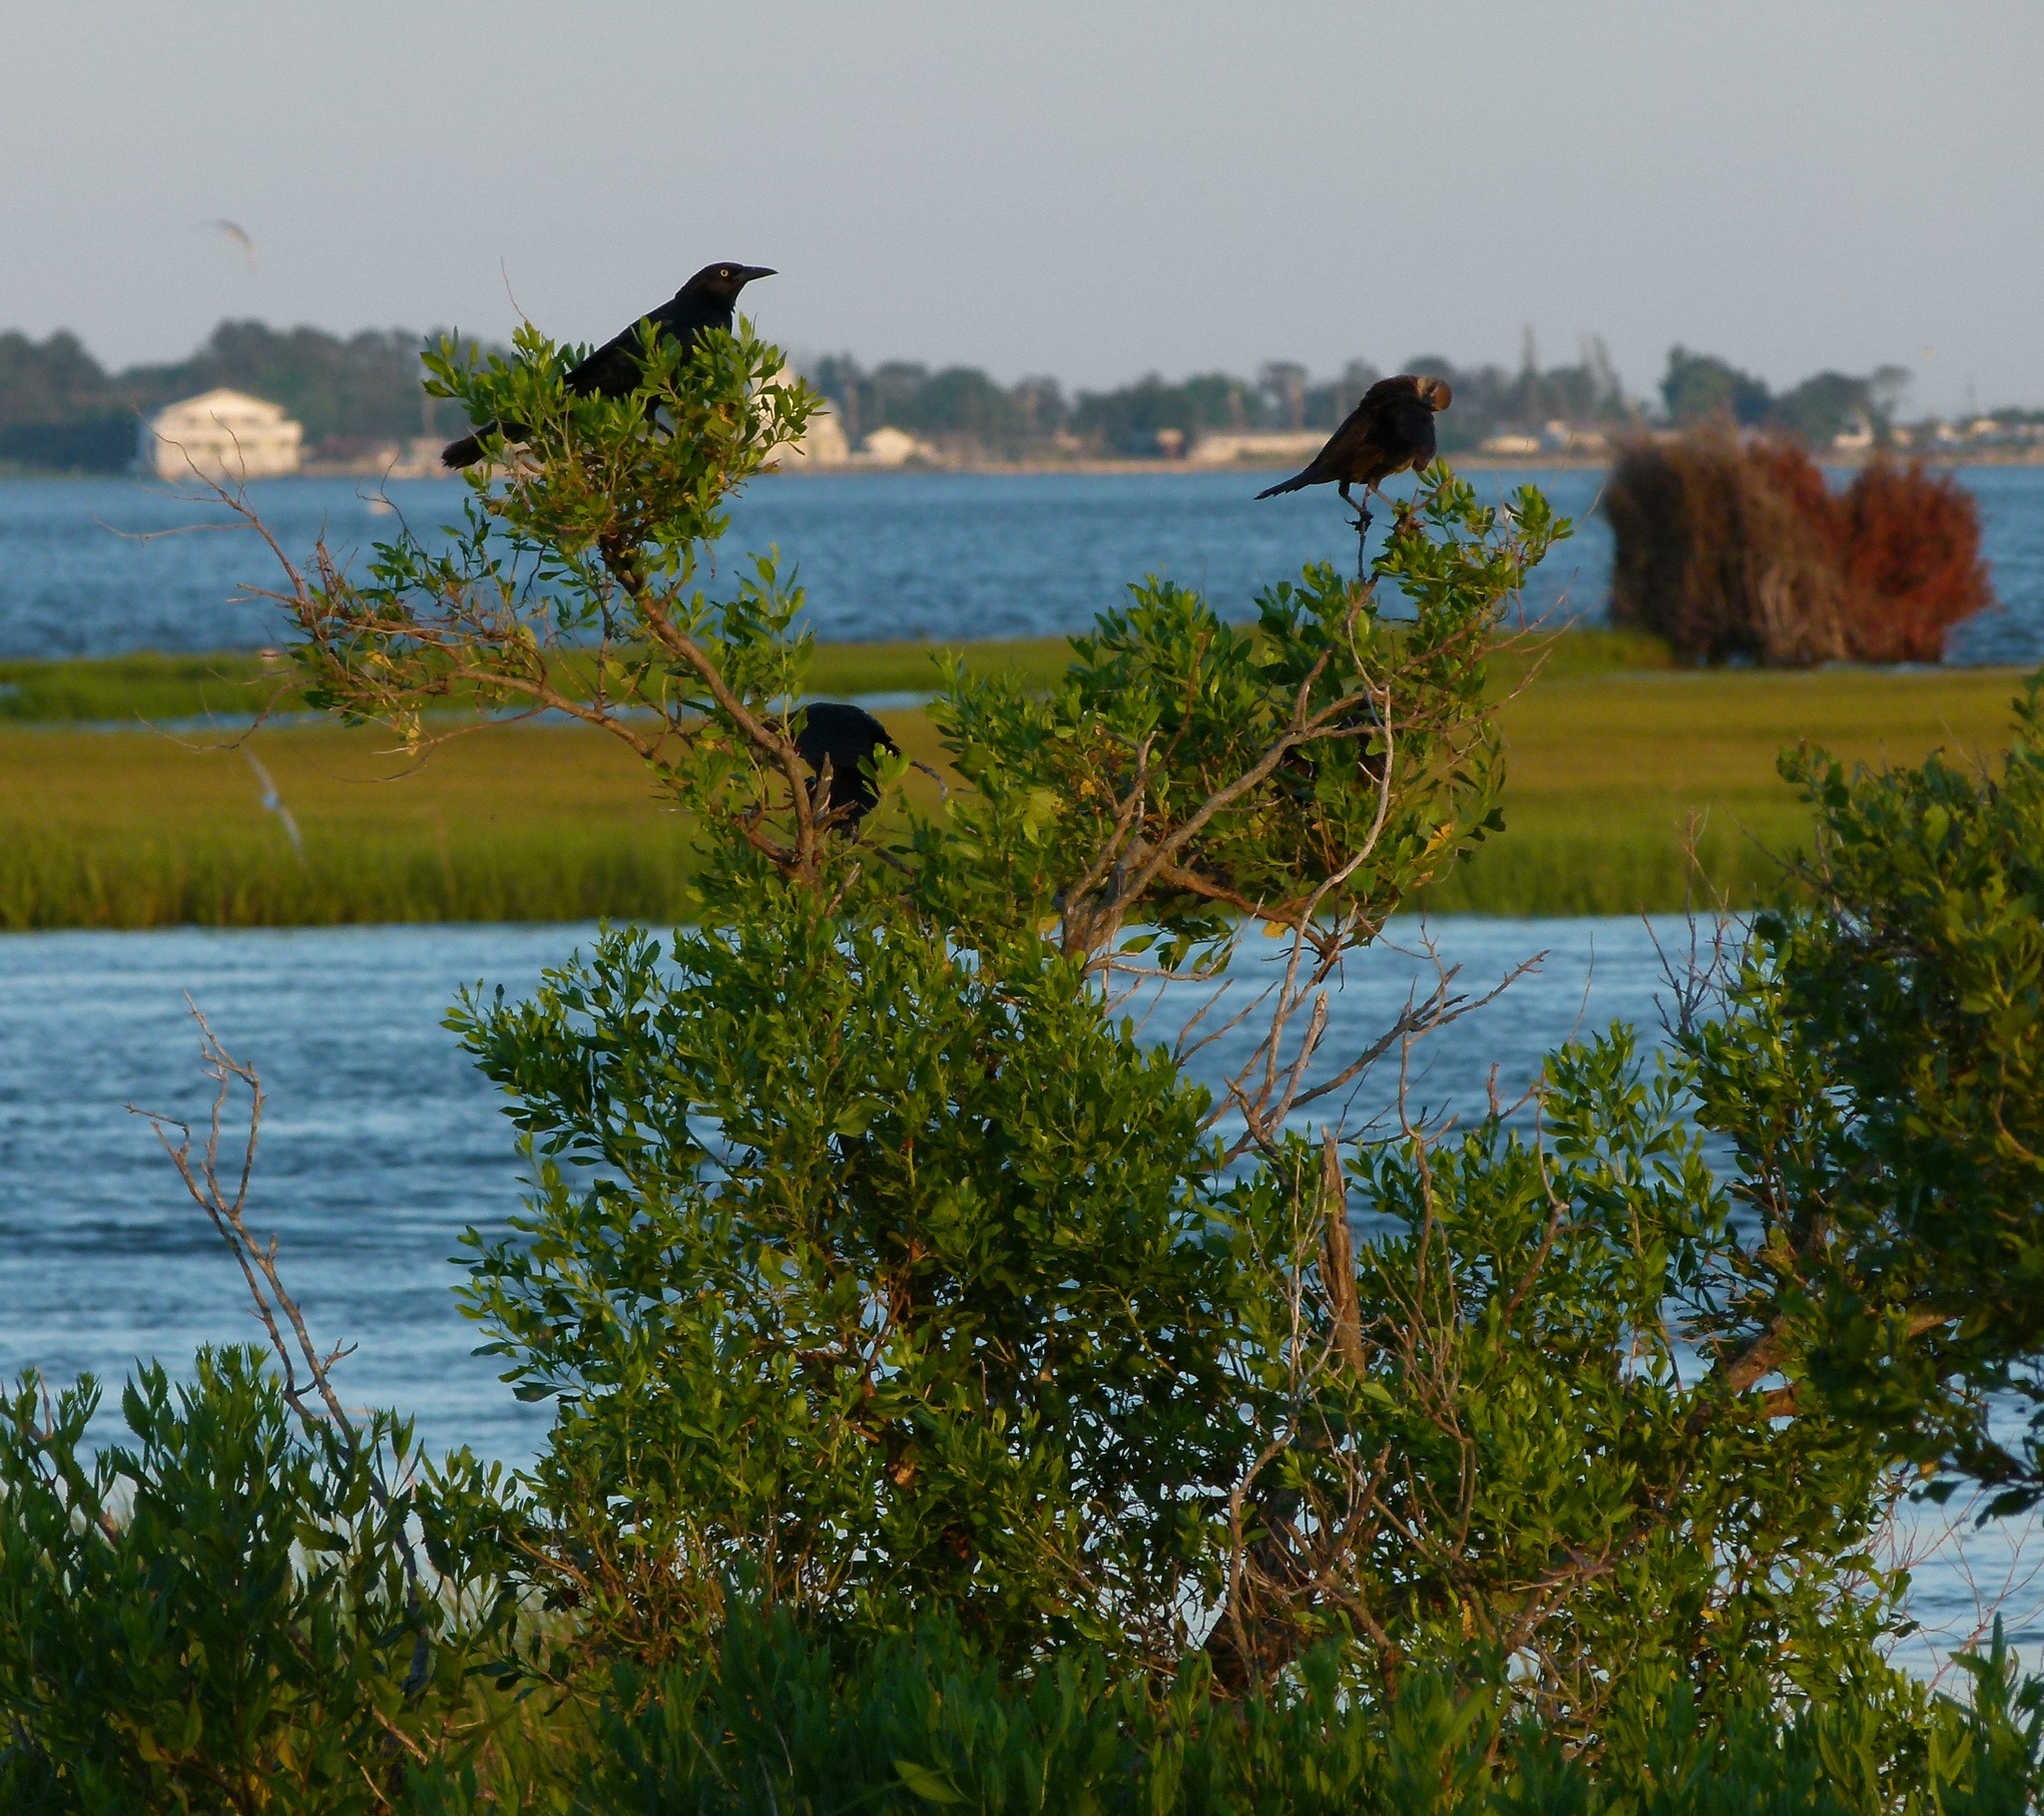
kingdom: Animalia
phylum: Chordata
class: Aves
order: Passeriformes
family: Icteridae
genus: Quiscalus
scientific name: Quiscalus major
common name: Boat-tailed grackle
